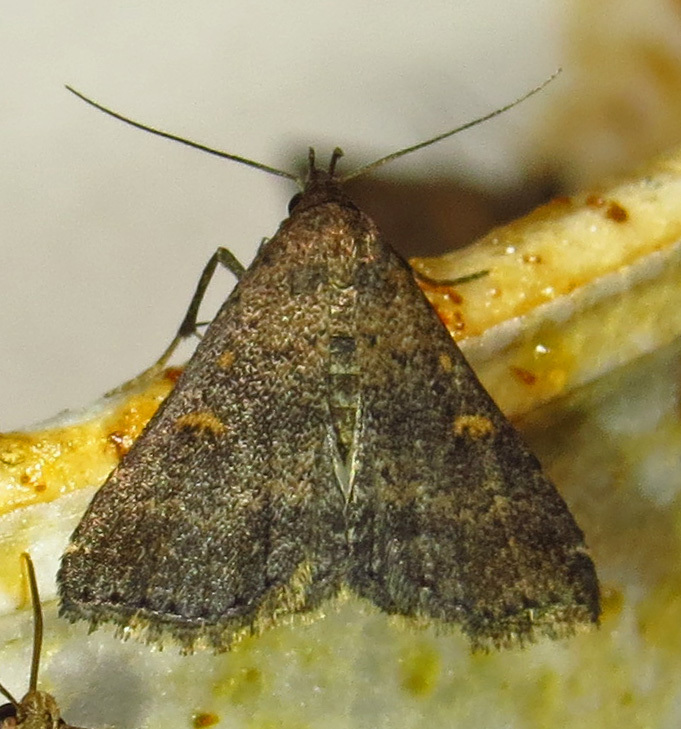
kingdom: Animalia
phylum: Arthropoda
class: Insecta
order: Lepidoptera
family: Erebidae
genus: Tetanolita
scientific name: Tetanolita mynesalis
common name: Smoky tetanolita moth
